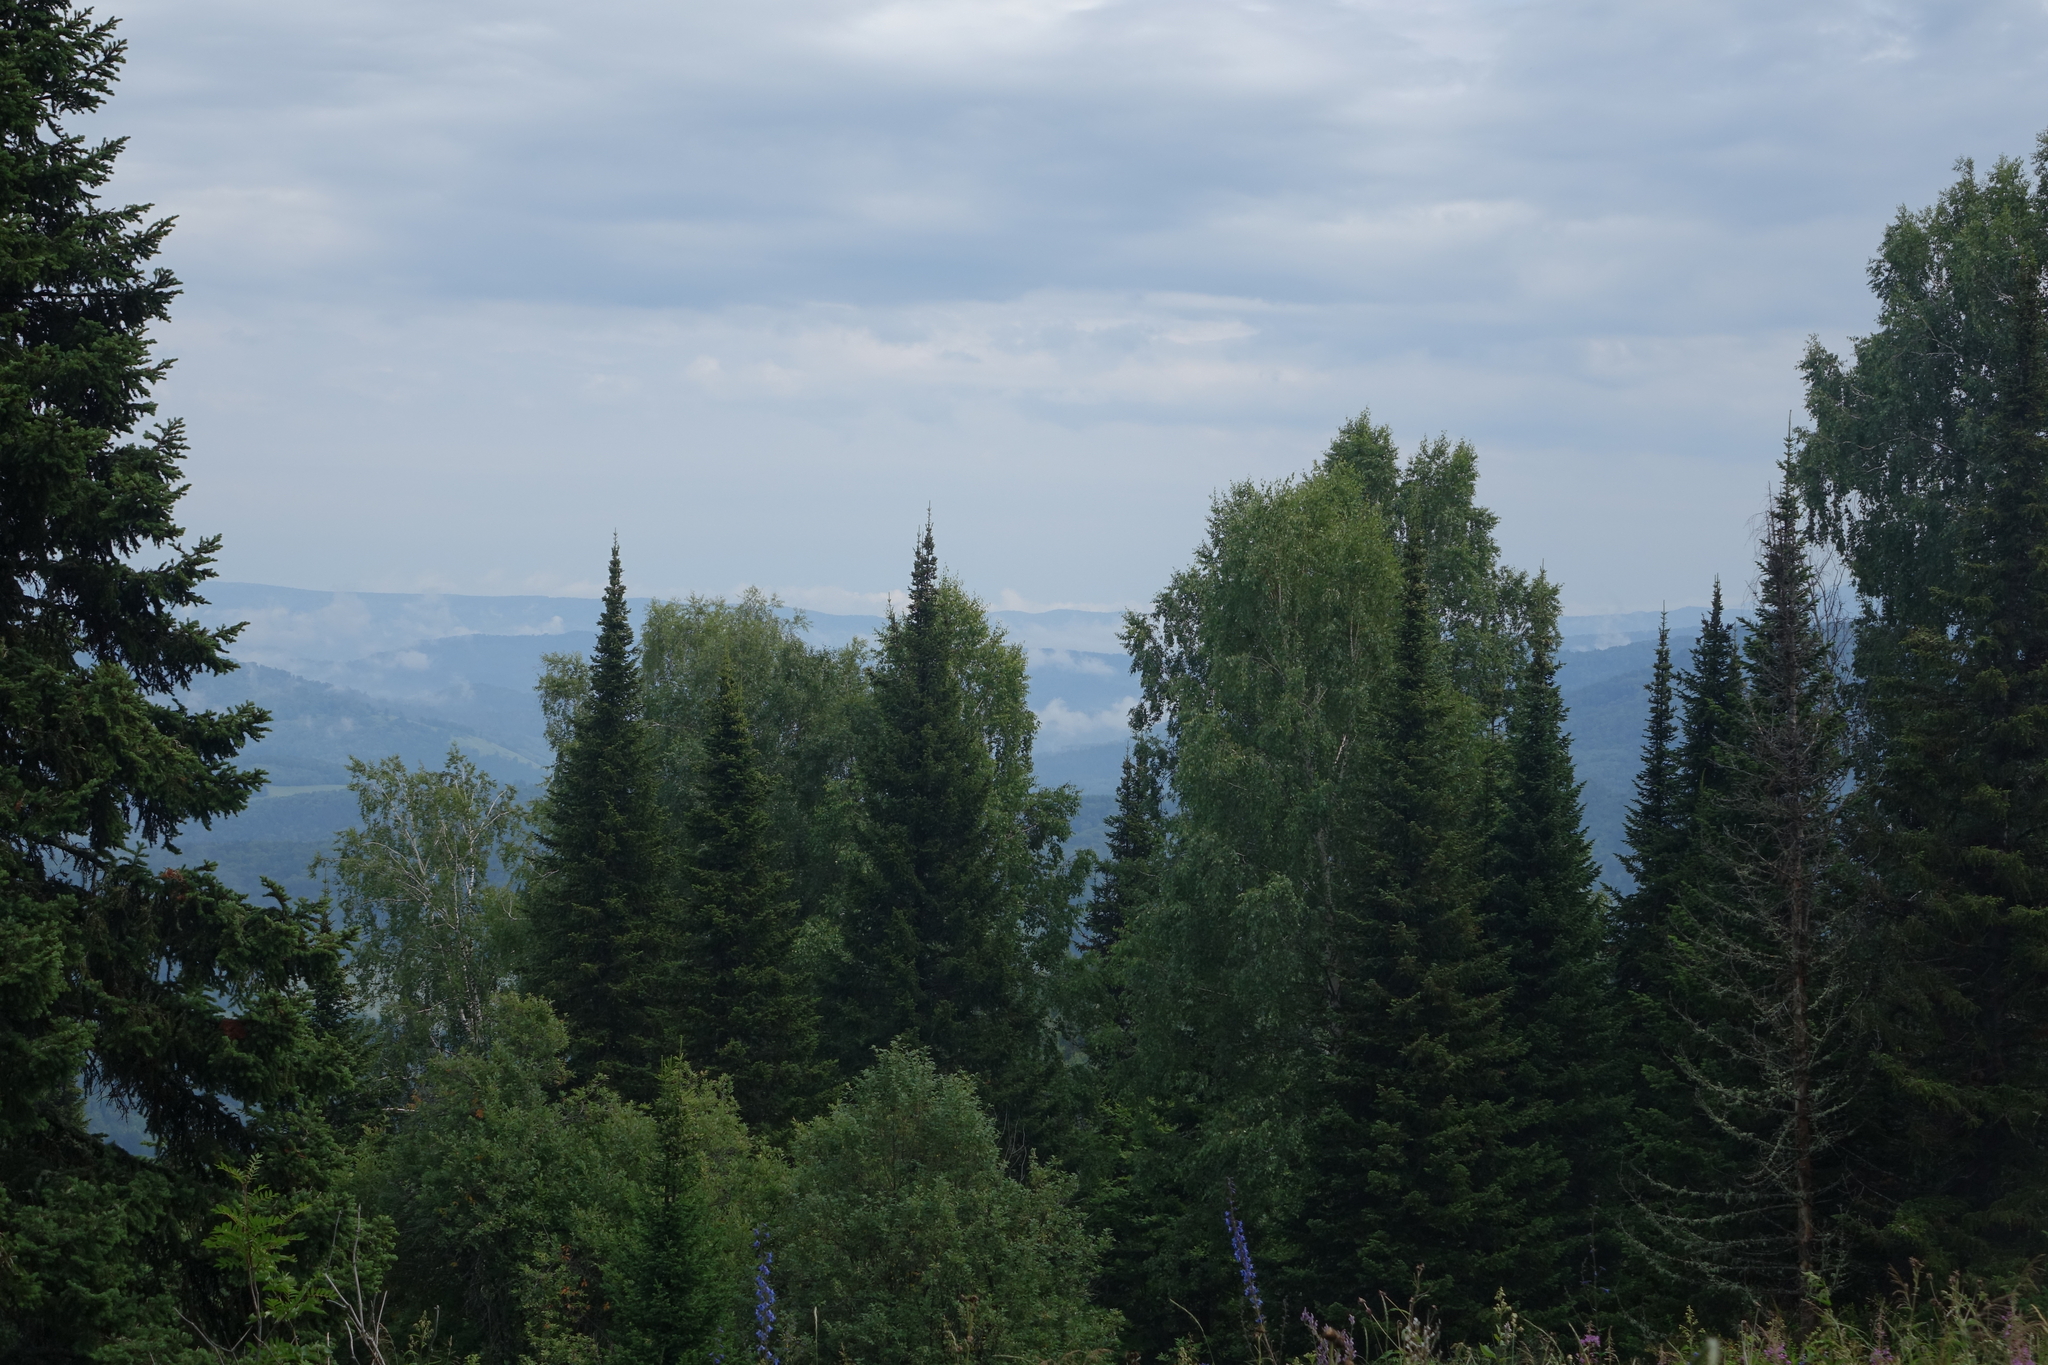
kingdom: Plantae
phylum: Tracheophyta
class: Pinopsida
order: Pinales
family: Pinaceae
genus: Abies
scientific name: Abies sibirica
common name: Siberian fir
